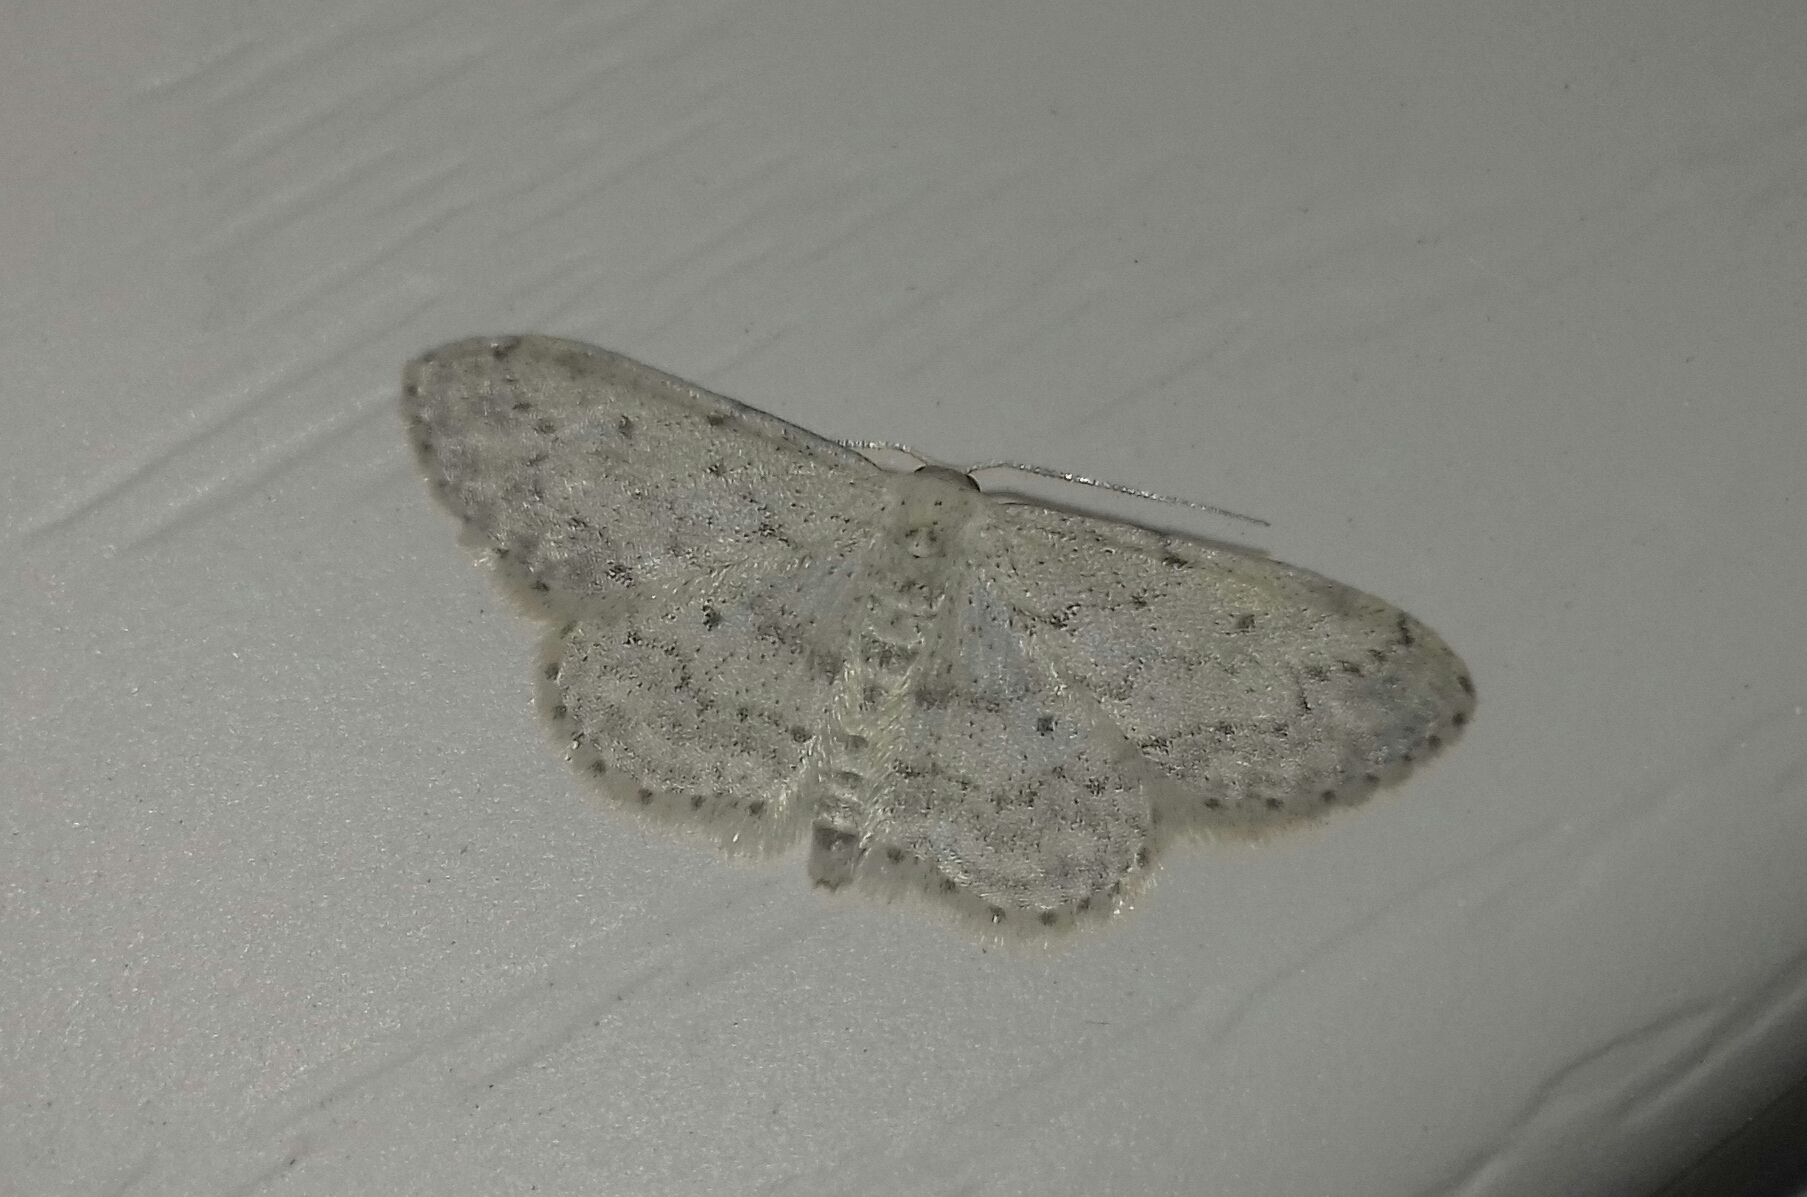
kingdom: Animalia
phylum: Arthropoda
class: Insecta
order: Lepidoptera
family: Geometridae
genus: Idaea
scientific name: Idaea seriata
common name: Small dusty wave
